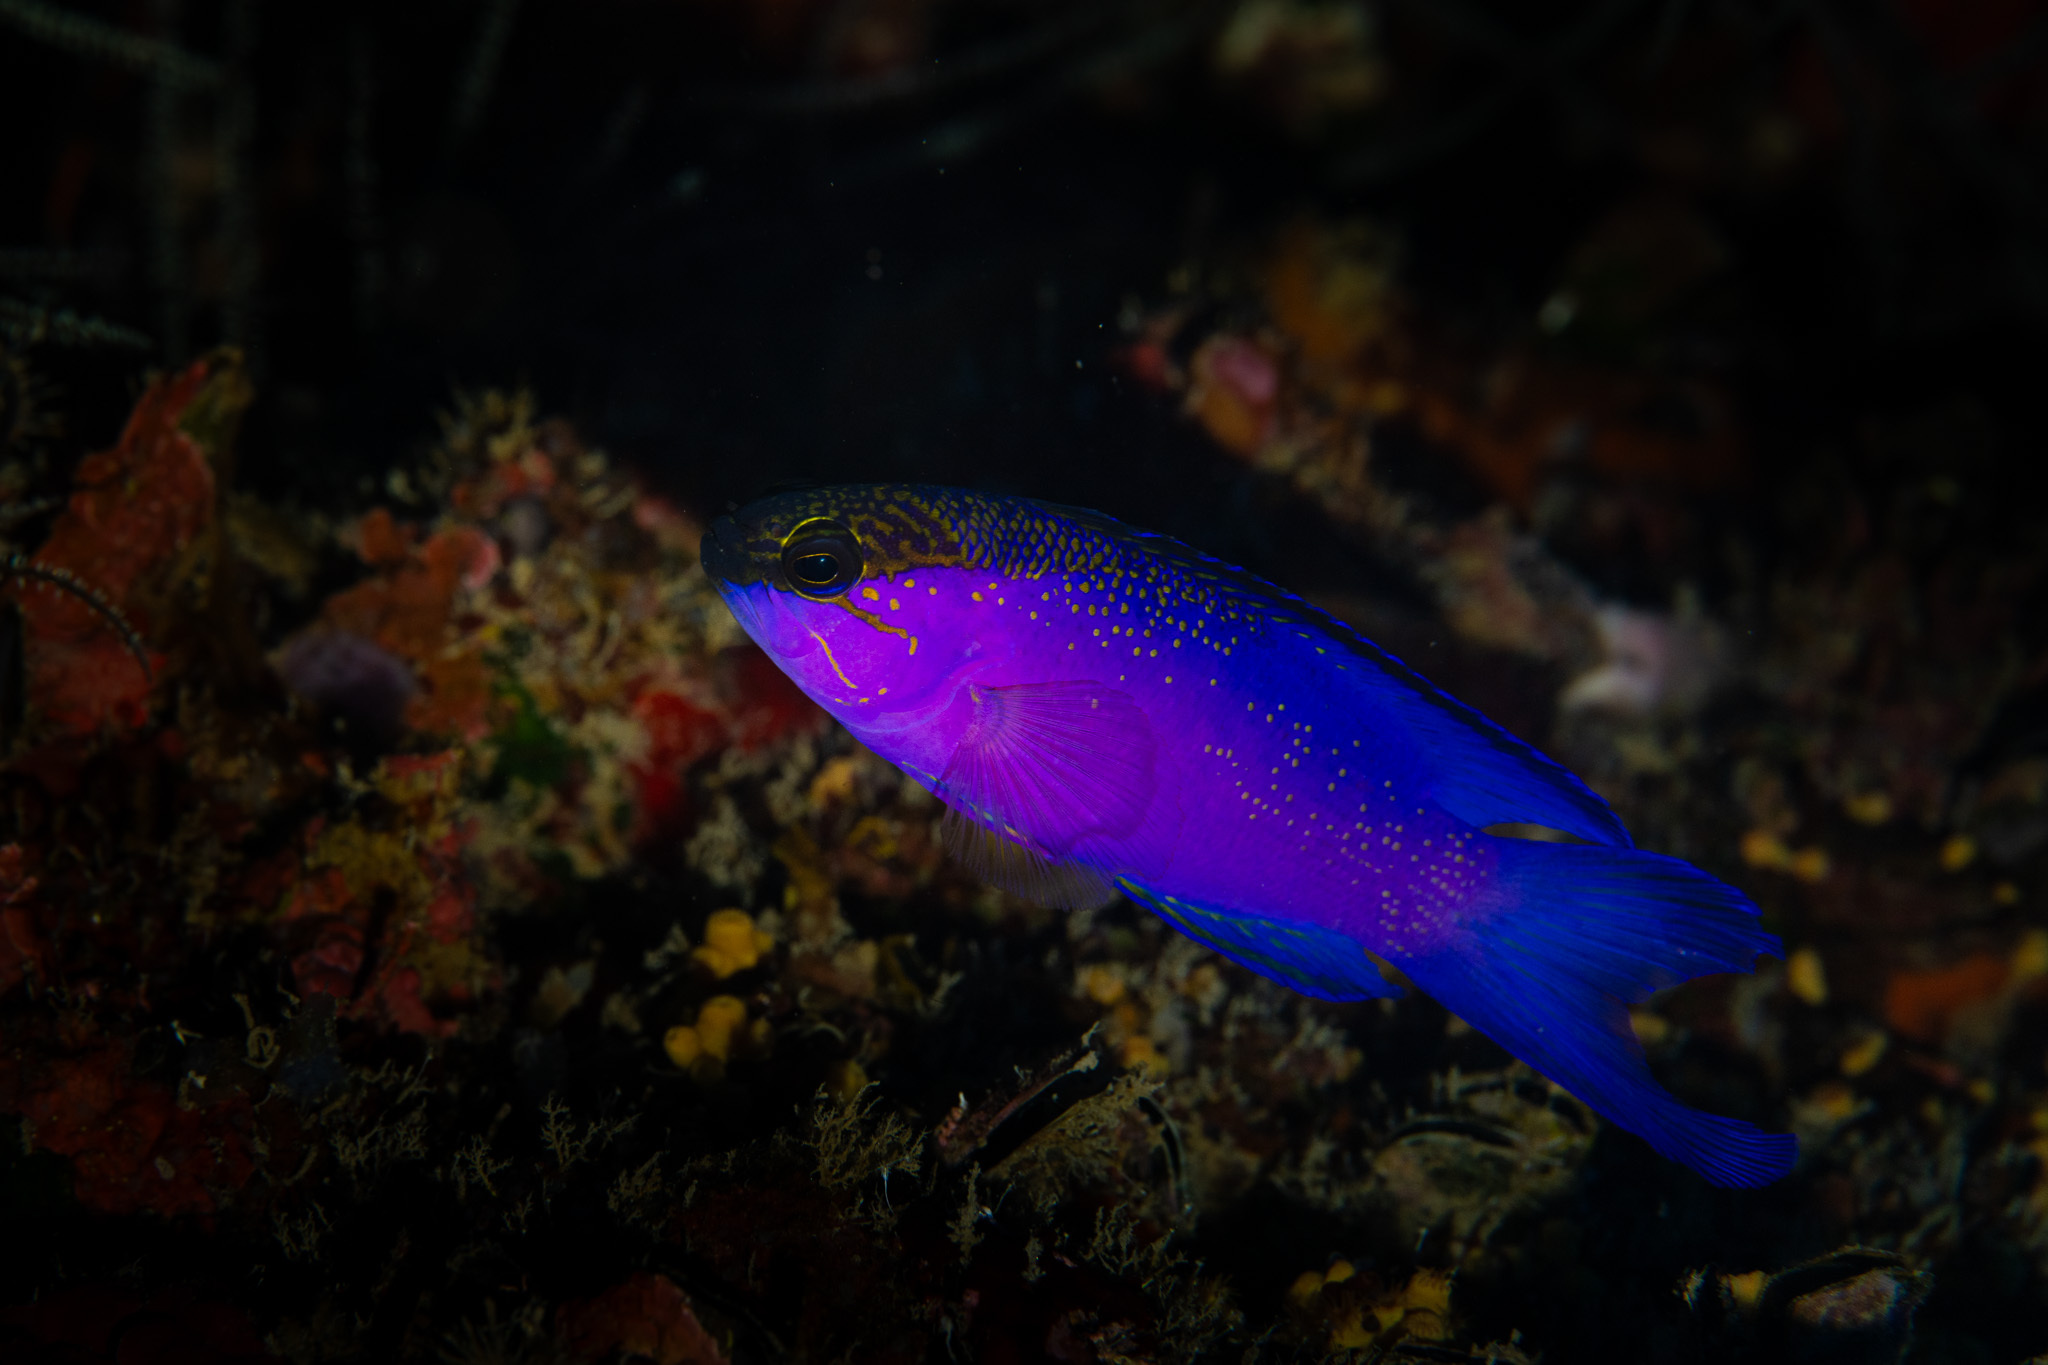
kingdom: Animalia
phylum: Chordata
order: Perciformes
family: Grammatidae
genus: Gramma
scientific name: Gramma melacara
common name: Blackcap basslet
